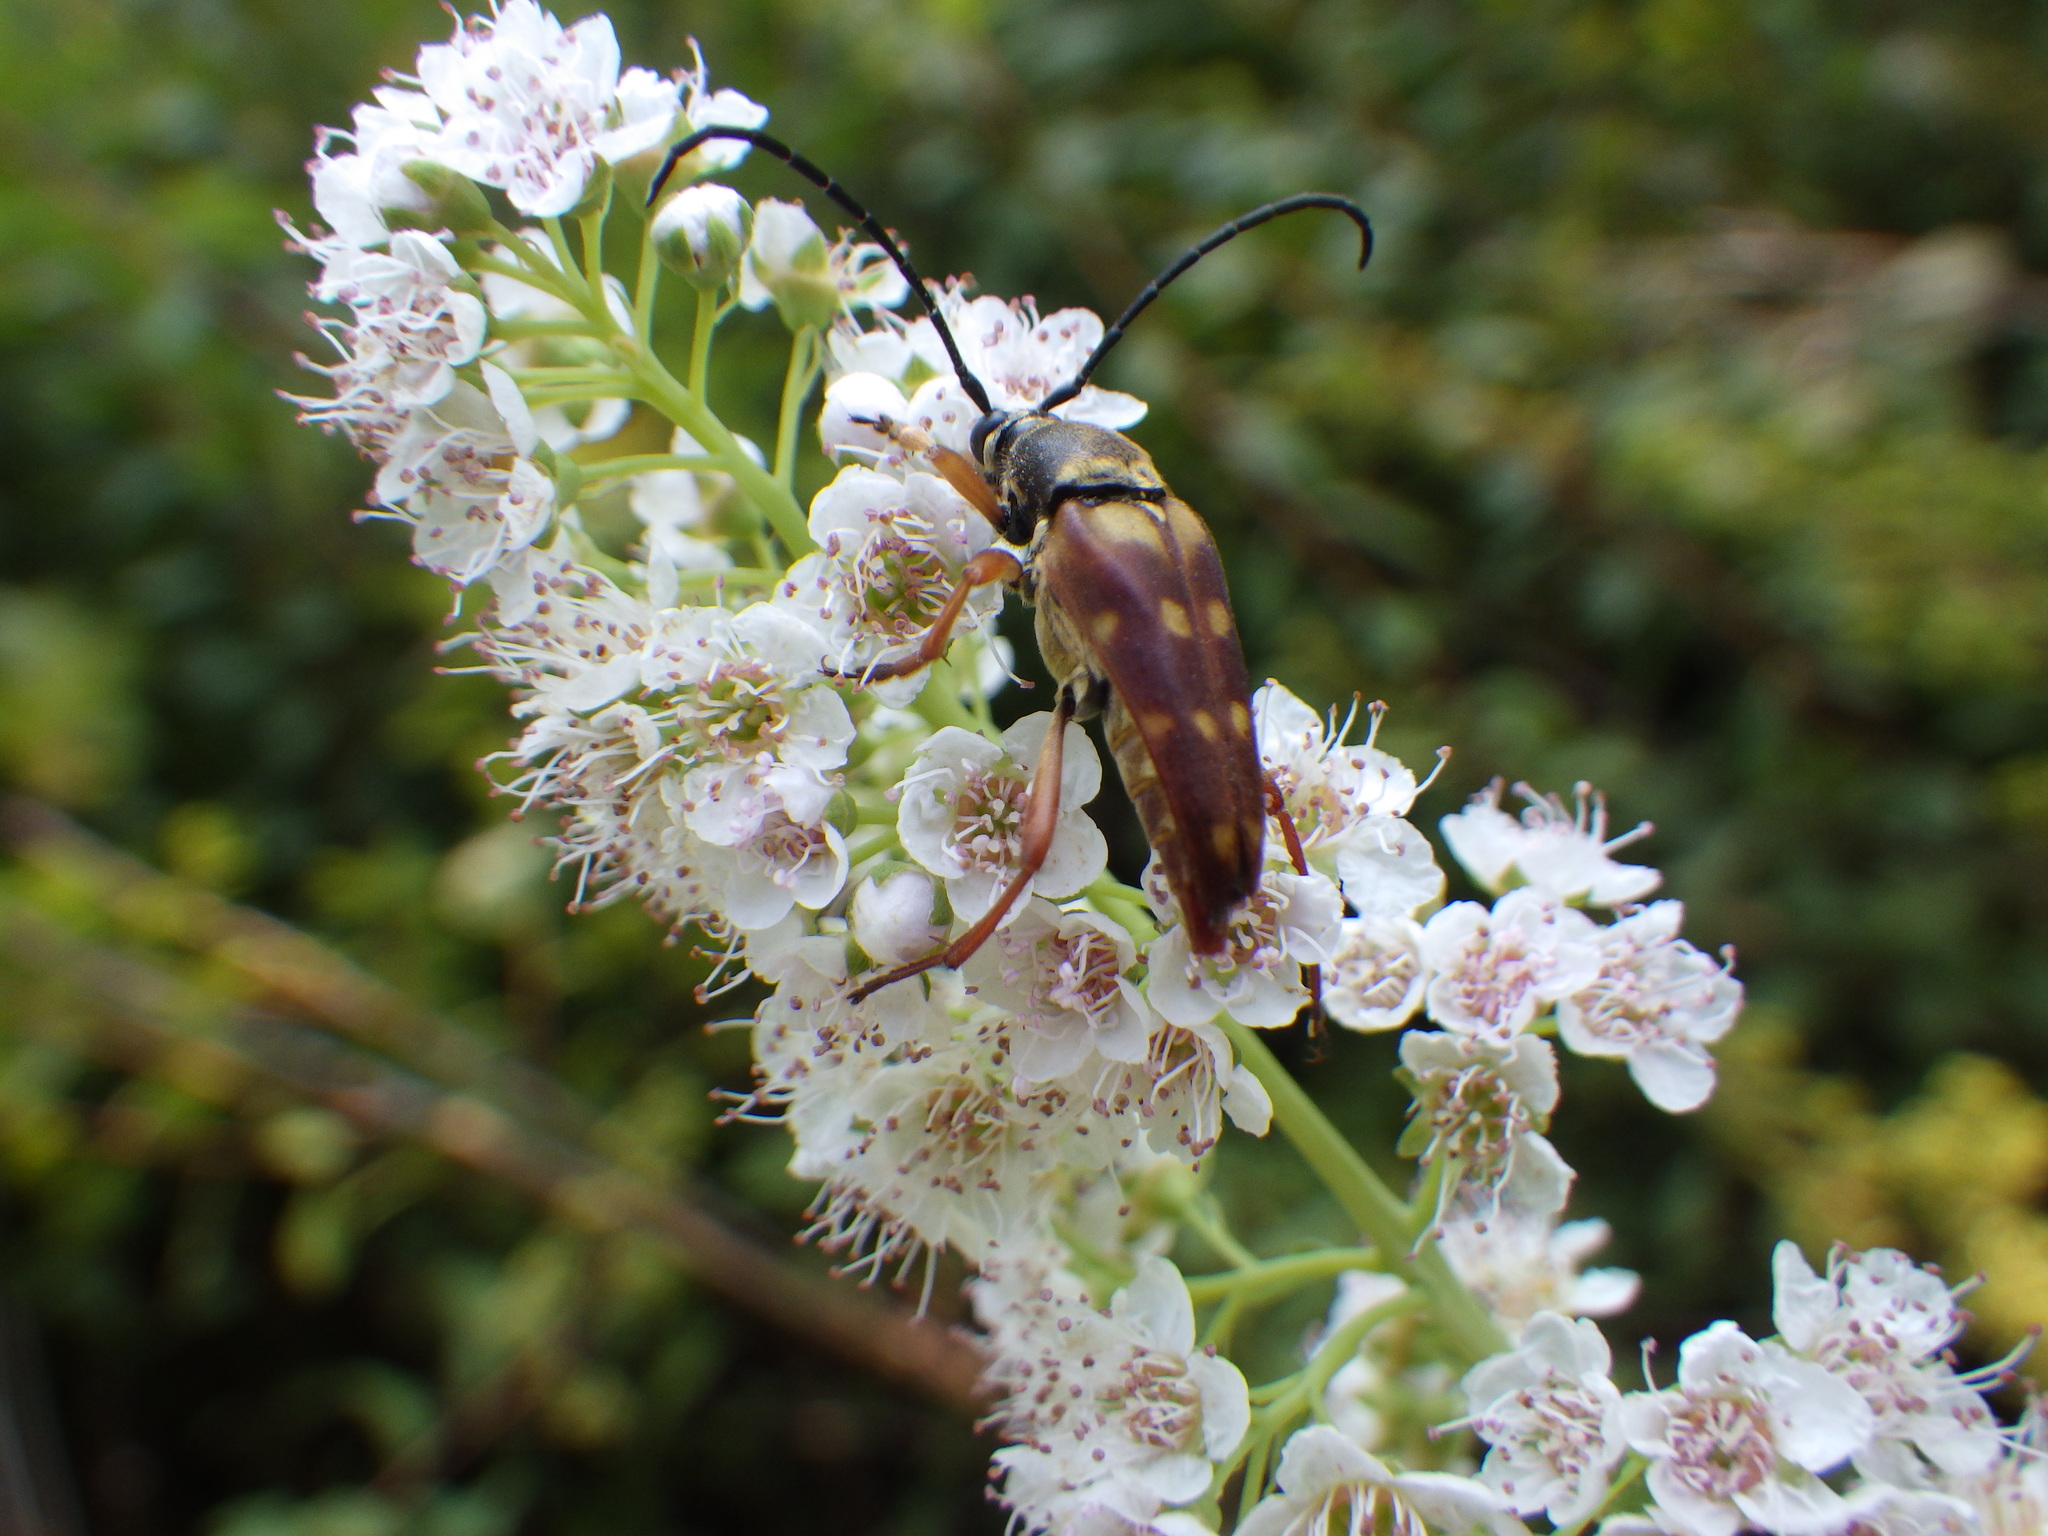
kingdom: Animalia
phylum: Arthropoda
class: Insecta
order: Coleoptera
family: Cerambycidae
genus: Typocerus
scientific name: Typocerus velutinus
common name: Banded longhorn beetle
